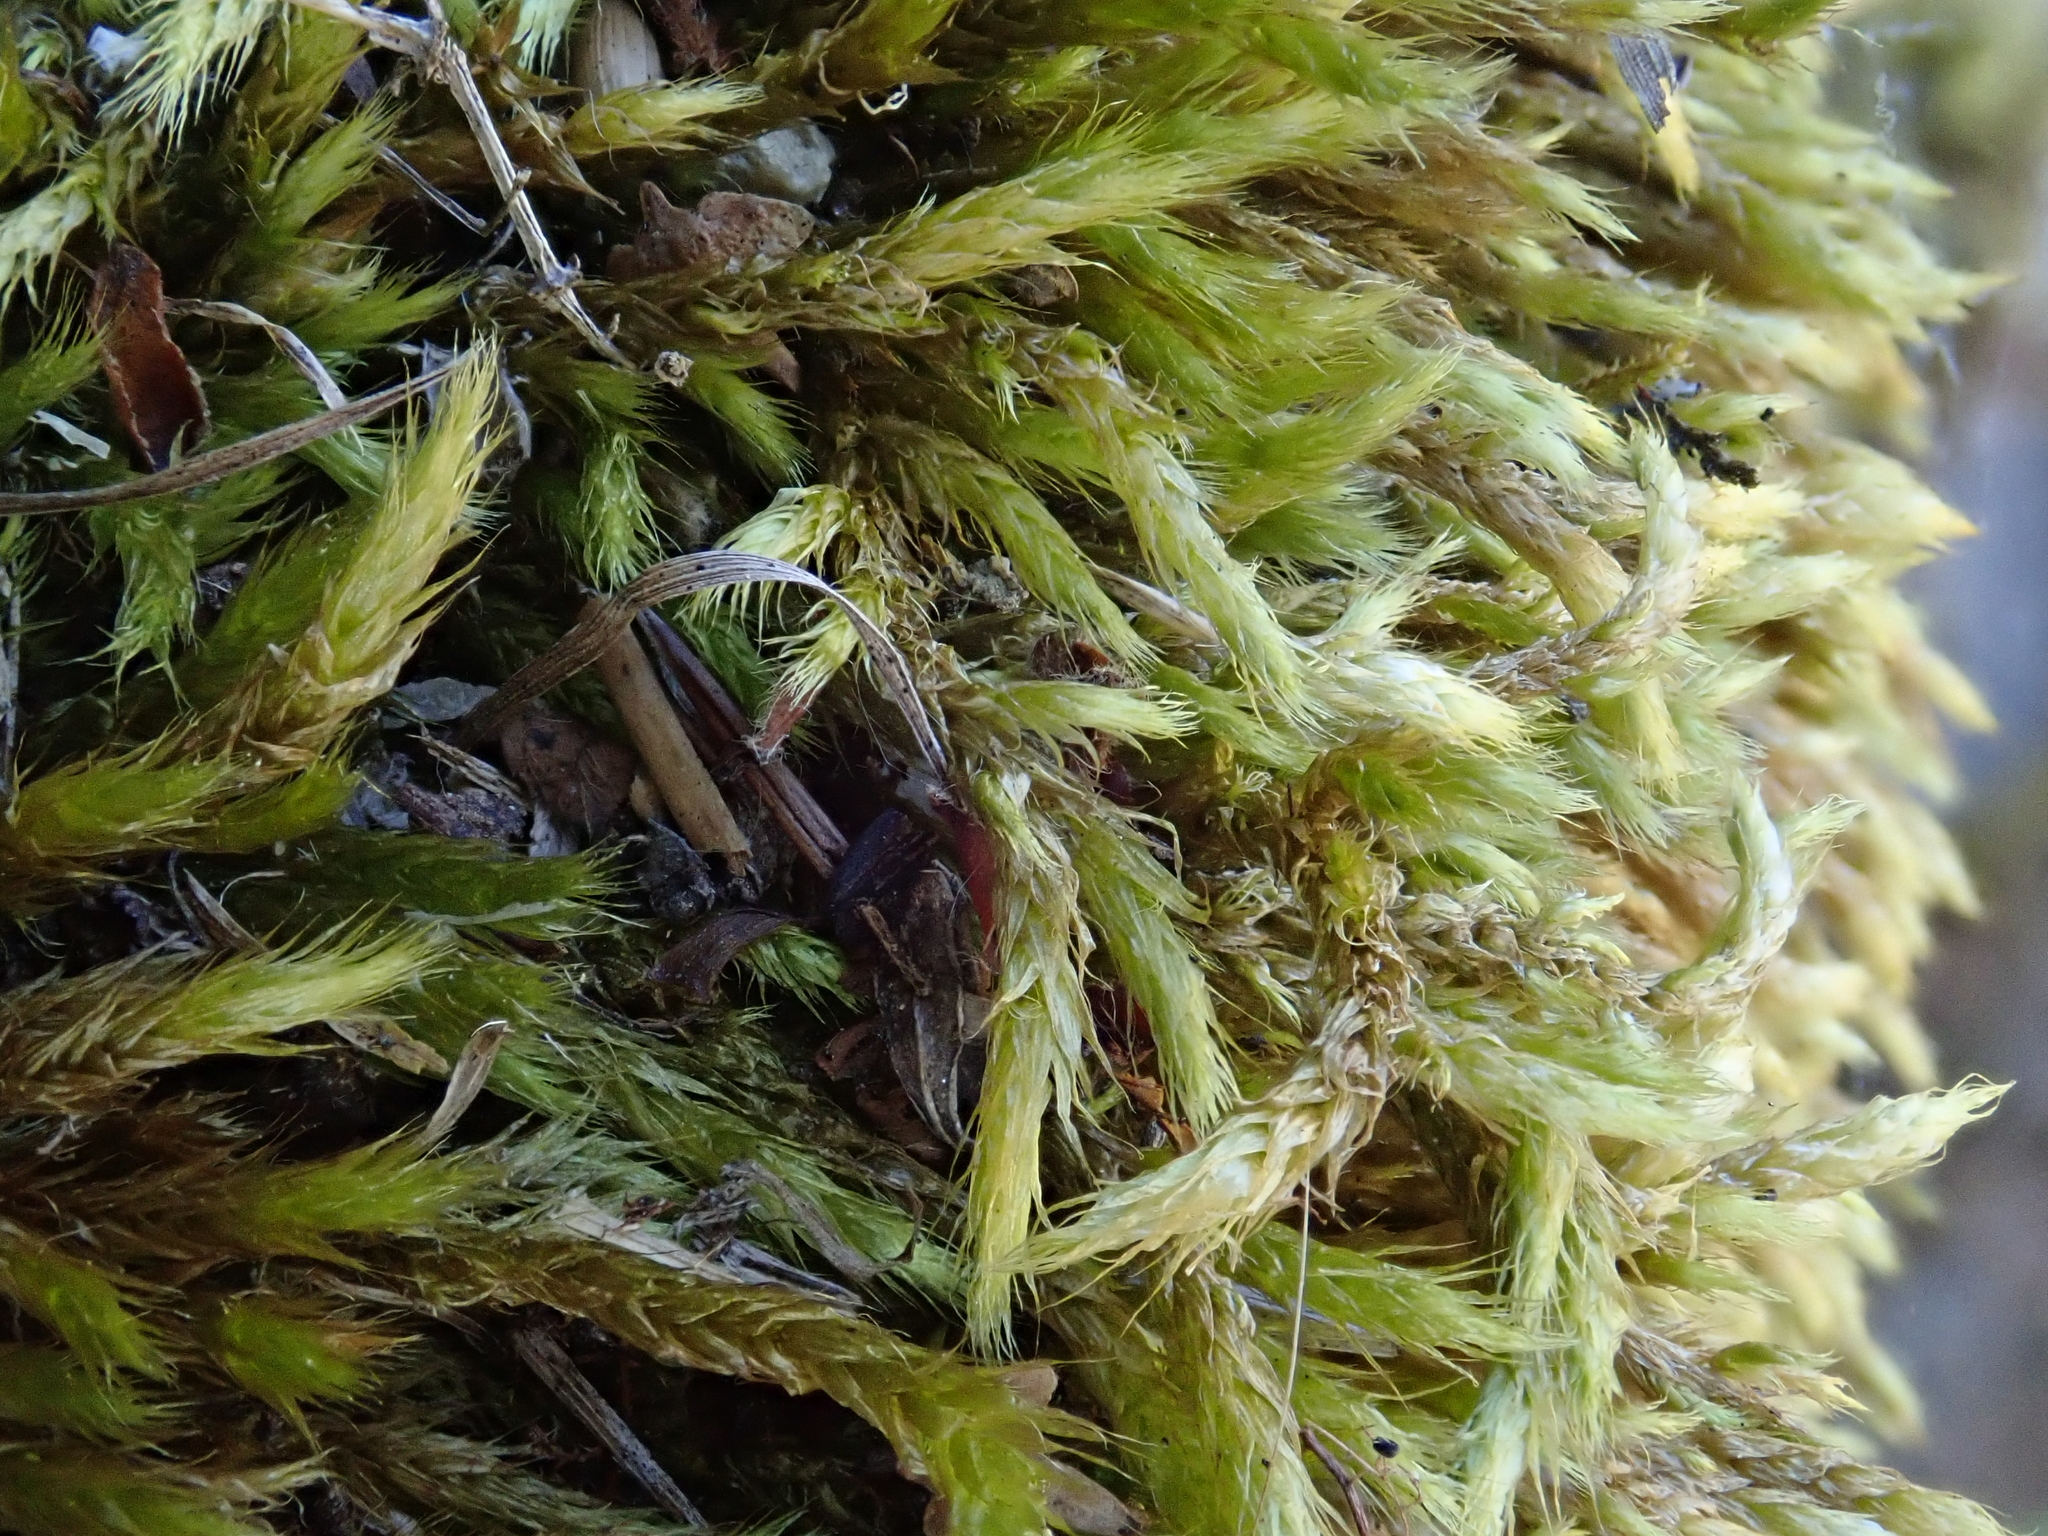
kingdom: Plantae
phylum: Bryophyta
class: Bryopsida
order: Hypnales
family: Brachytheciaceae
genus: Brachythecium
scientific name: Brachythecium glareosum
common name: Streaky feather-moss
